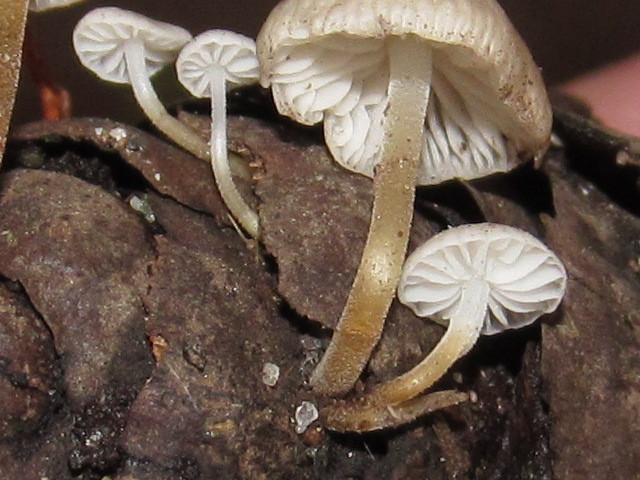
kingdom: Fungi
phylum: Basidiomycota
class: Agaricomycetes
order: Agaricales
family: Physalacriaceae
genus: Strobilurus
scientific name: Strobilurus trullisatus
